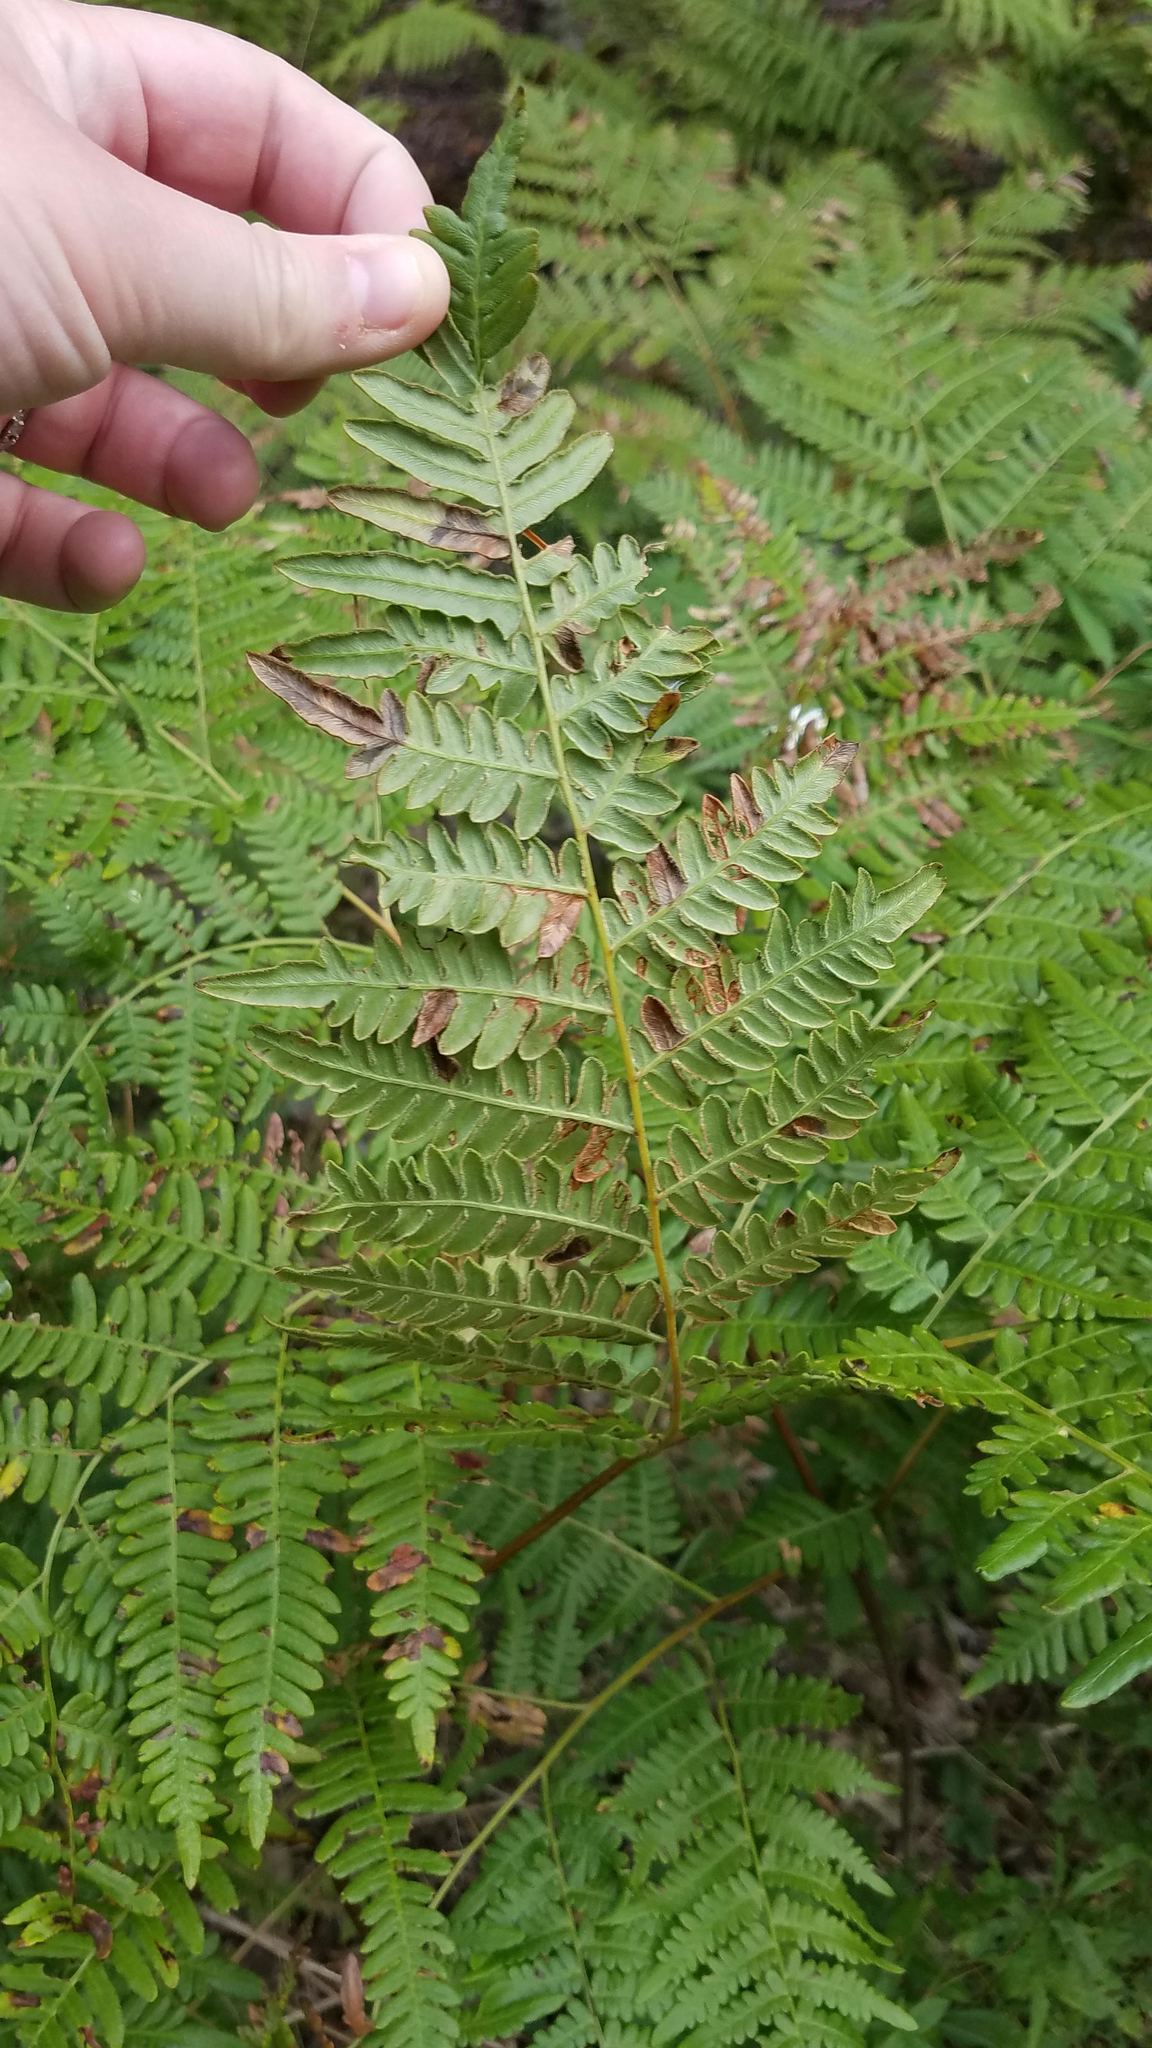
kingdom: Plantae
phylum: Tracheophyta
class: Polypodiopsida
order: Polypodiales
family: Dennstaedtiaceae
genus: Pteridium
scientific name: Pteridium aquilinum
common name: Bracken
